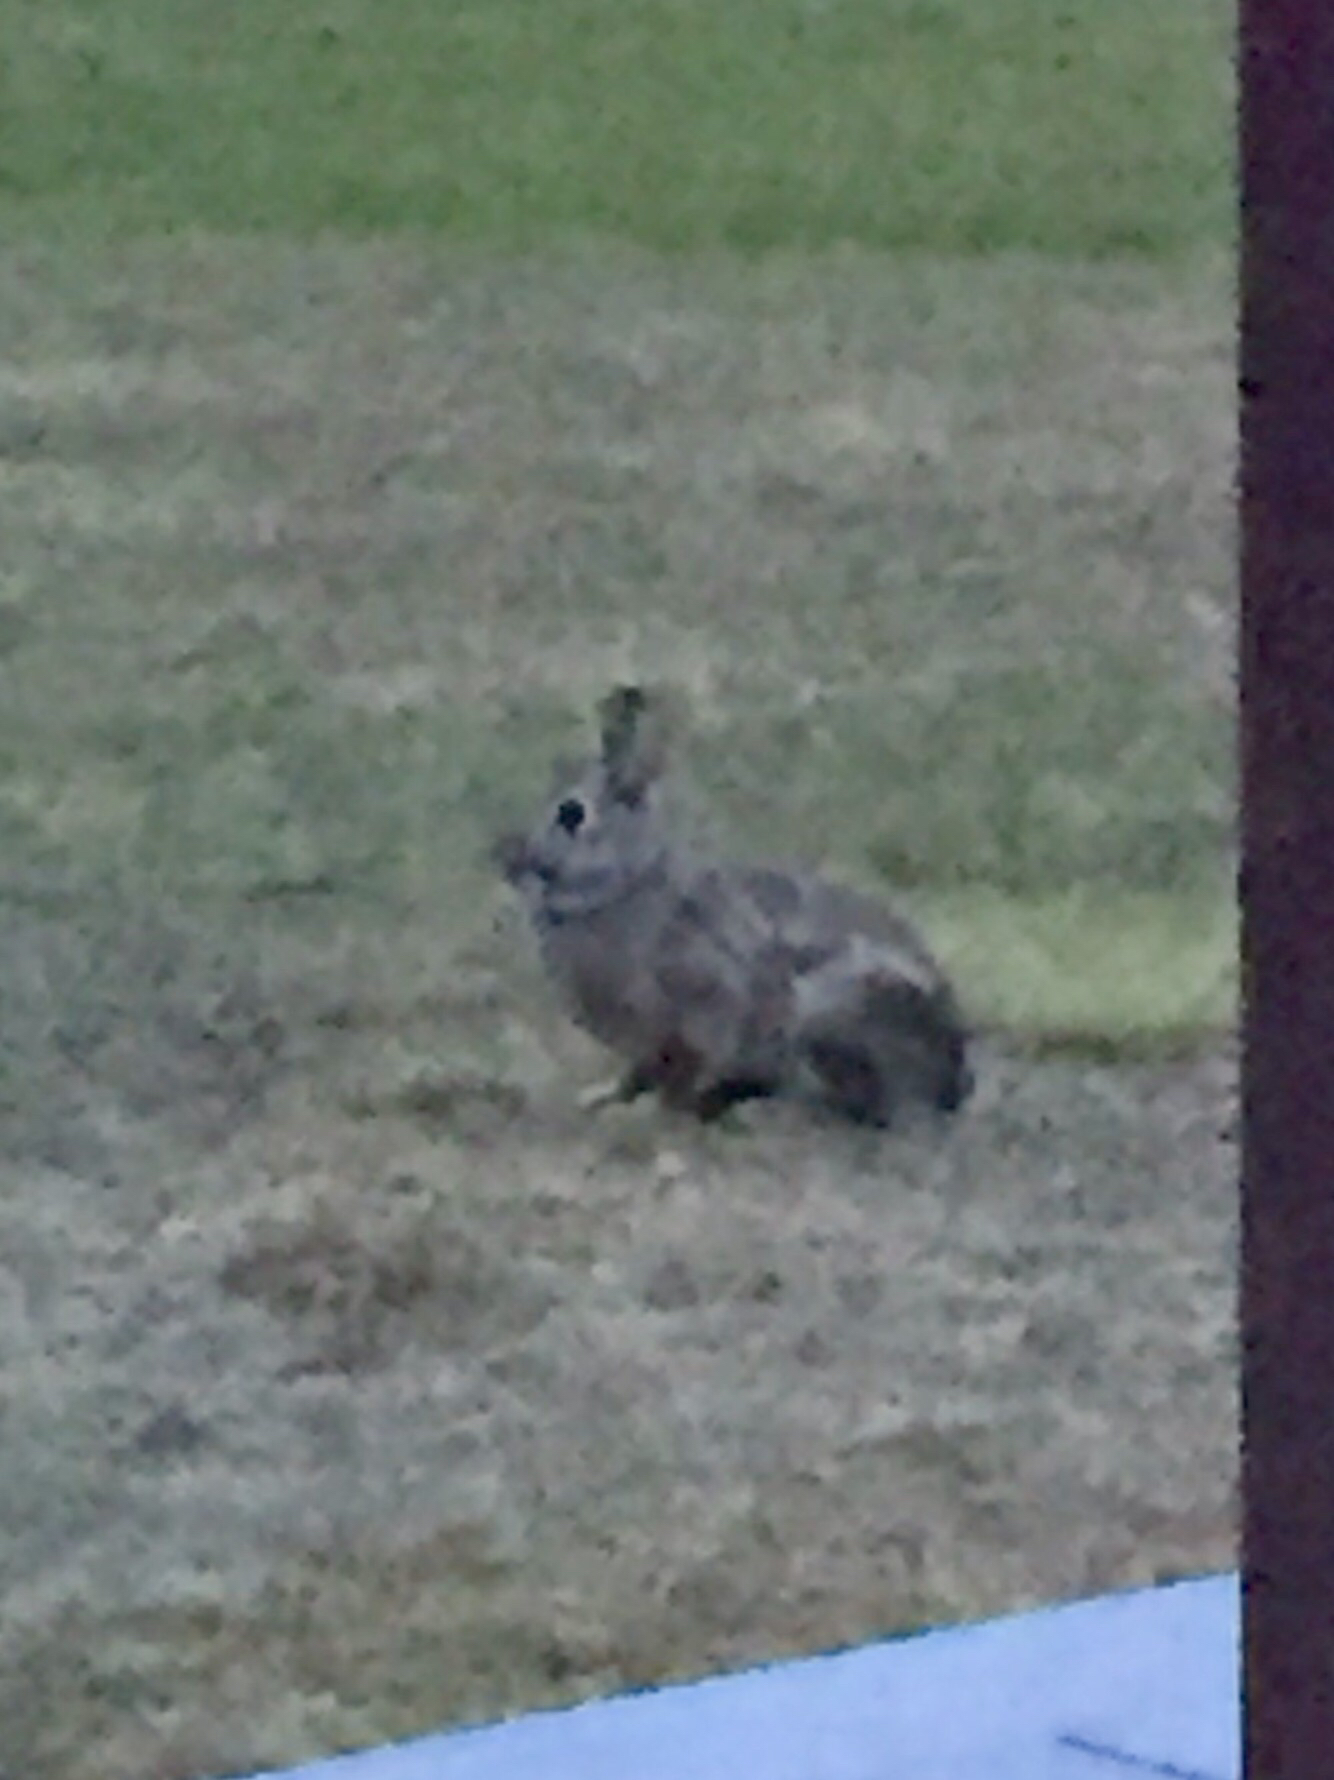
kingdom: Animalia
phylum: Chordata
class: Mammalia
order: Lagomorpha
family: Leporidae
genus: Sylvilagus
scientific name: Sylvilagus floridanus
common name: Eastern cottontail
